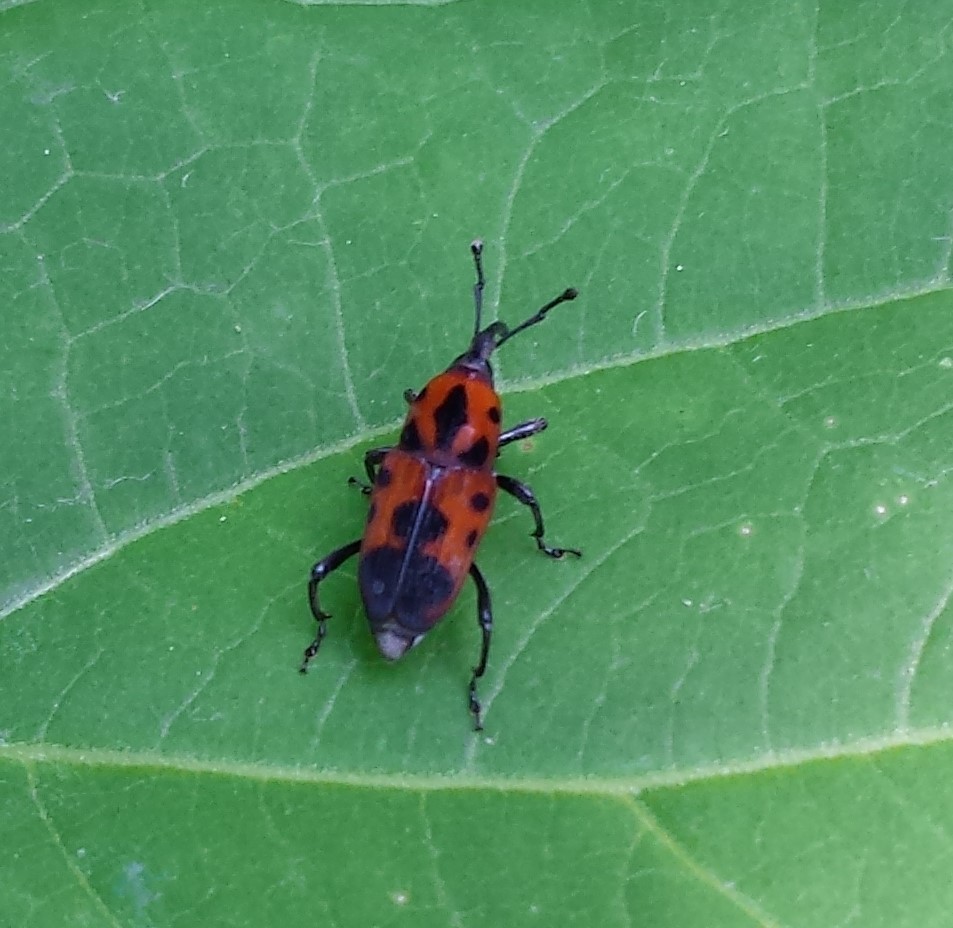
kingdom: Animalia
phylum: Arthropoda
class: Insecta
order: Coleoptera
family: Dryophthoridae
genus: Rhodobaenus
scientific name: Rhodobaenus quinquepunctatus
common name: Cocklebur weevil
